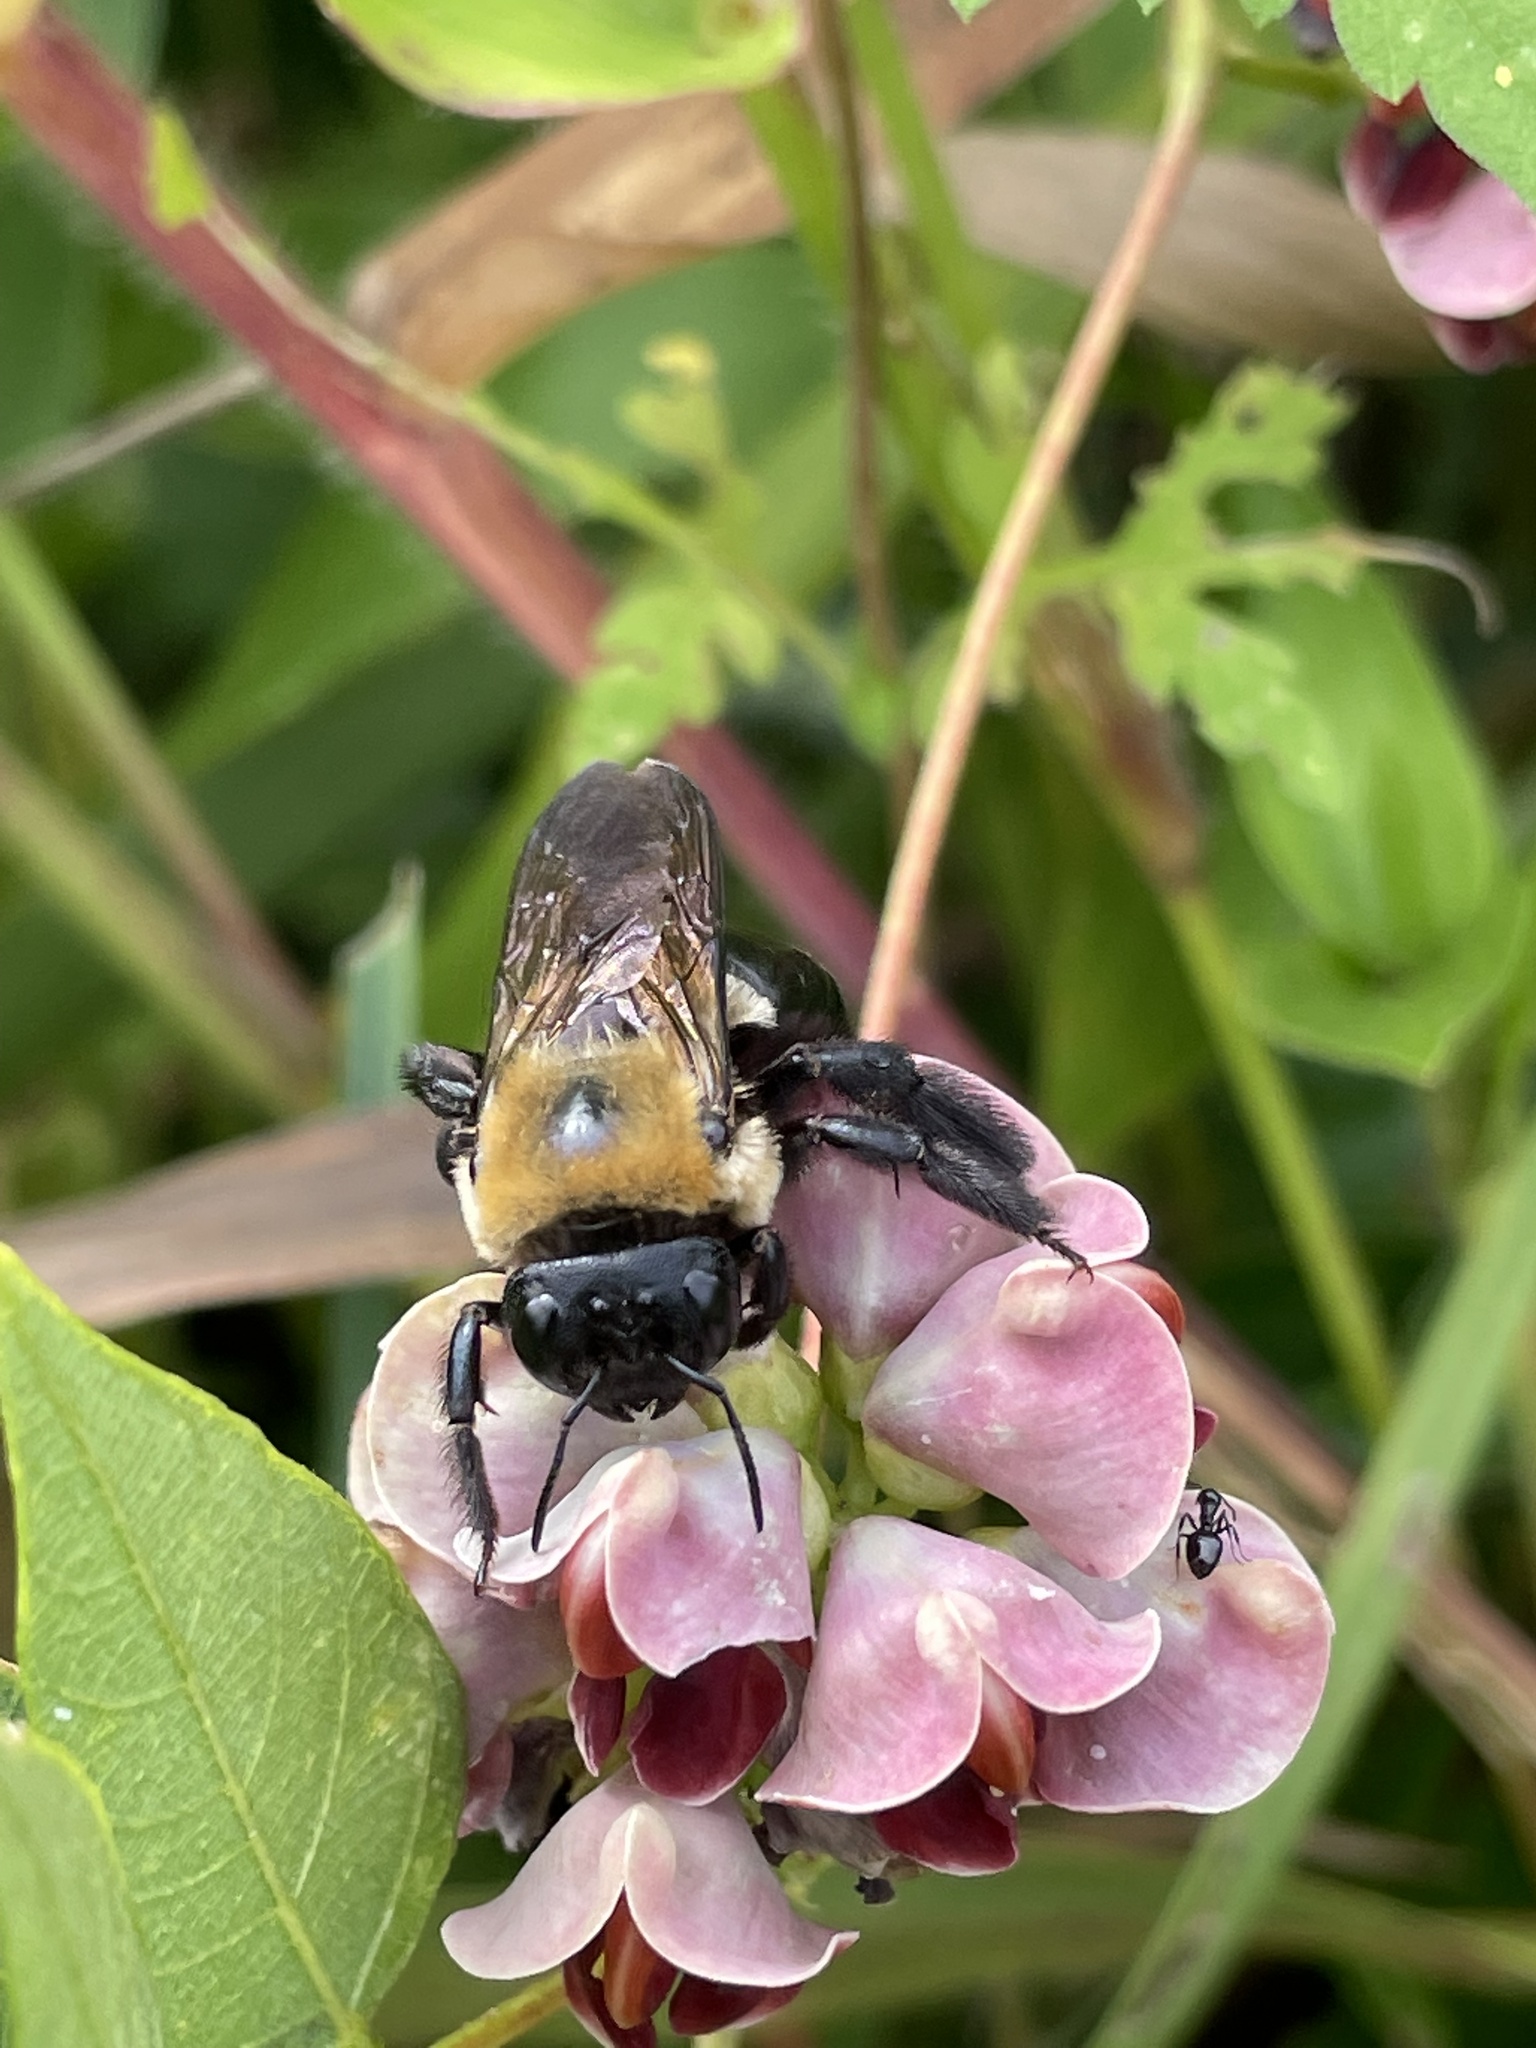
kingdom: Animalia
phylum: Arthropoda
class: Insecta
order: Hymenoptera
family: Apidae
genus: Xylocopa
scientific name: Xylocopa virginica
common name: Carpenter bee
